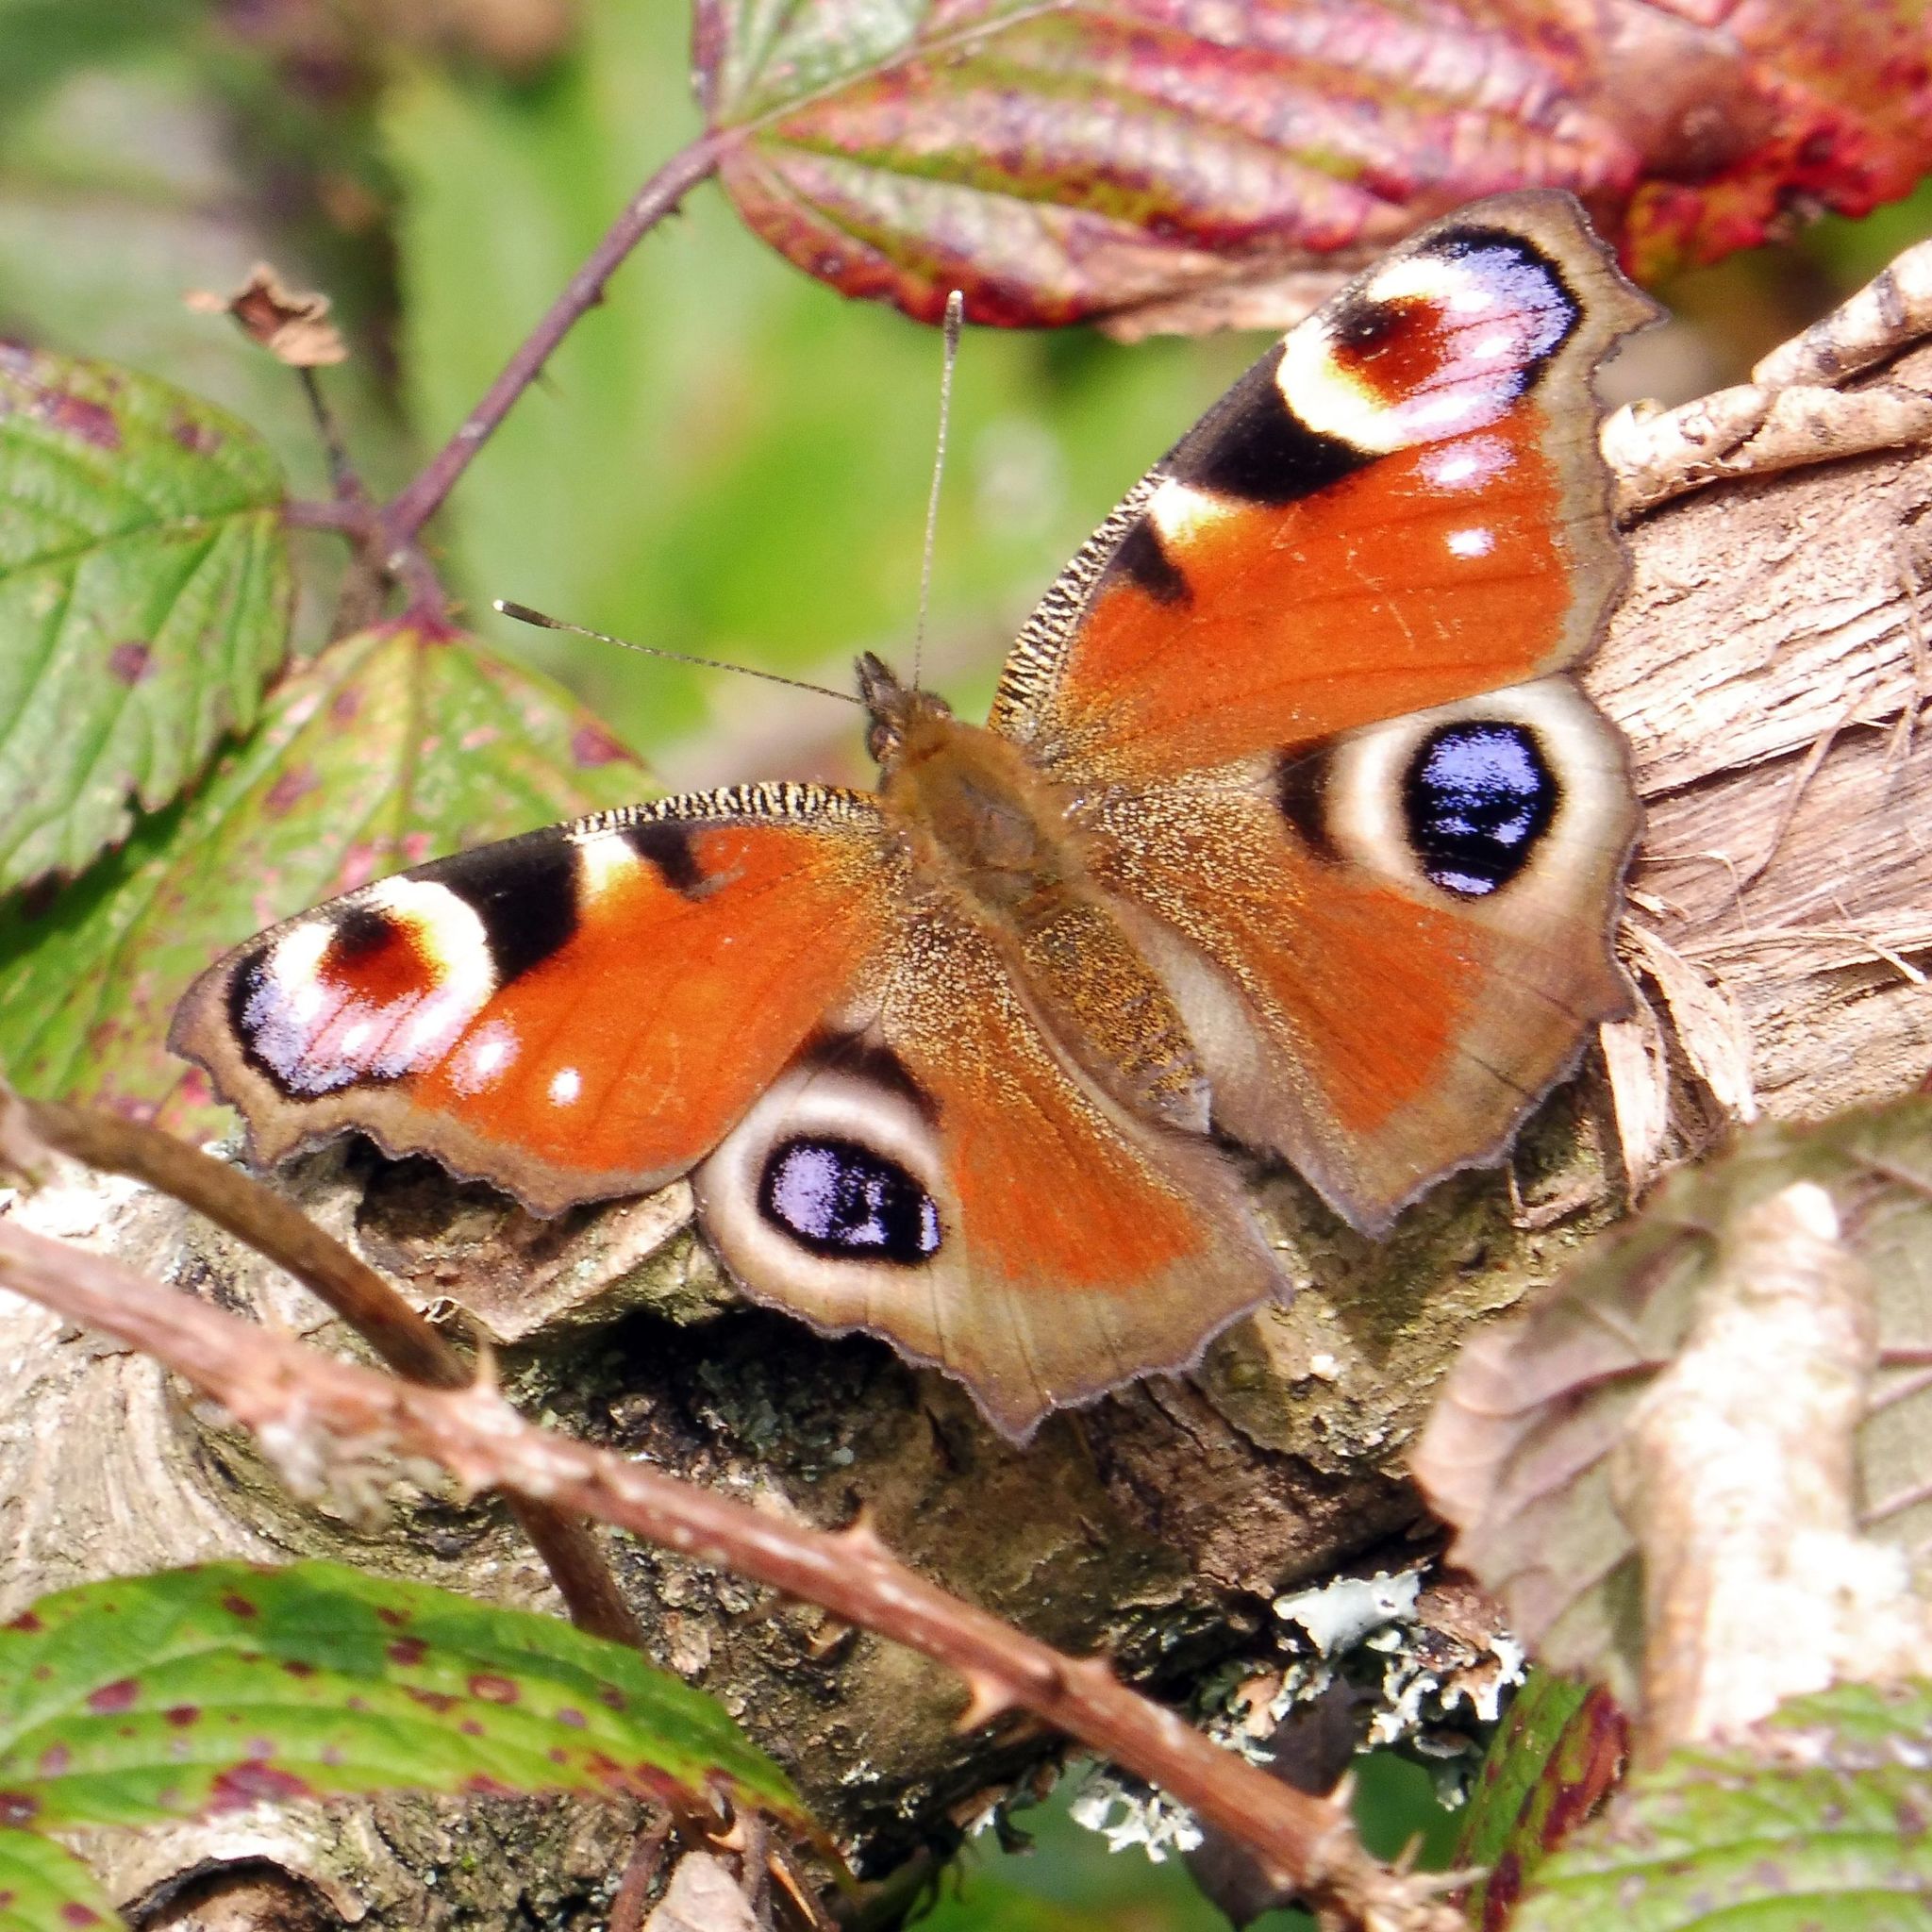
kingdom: Animalia
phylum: Arthropoda
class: Insecta
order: Lepidoptera
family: Nymphalidae
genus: Aglais
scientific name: Aglais io
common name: Peacock
